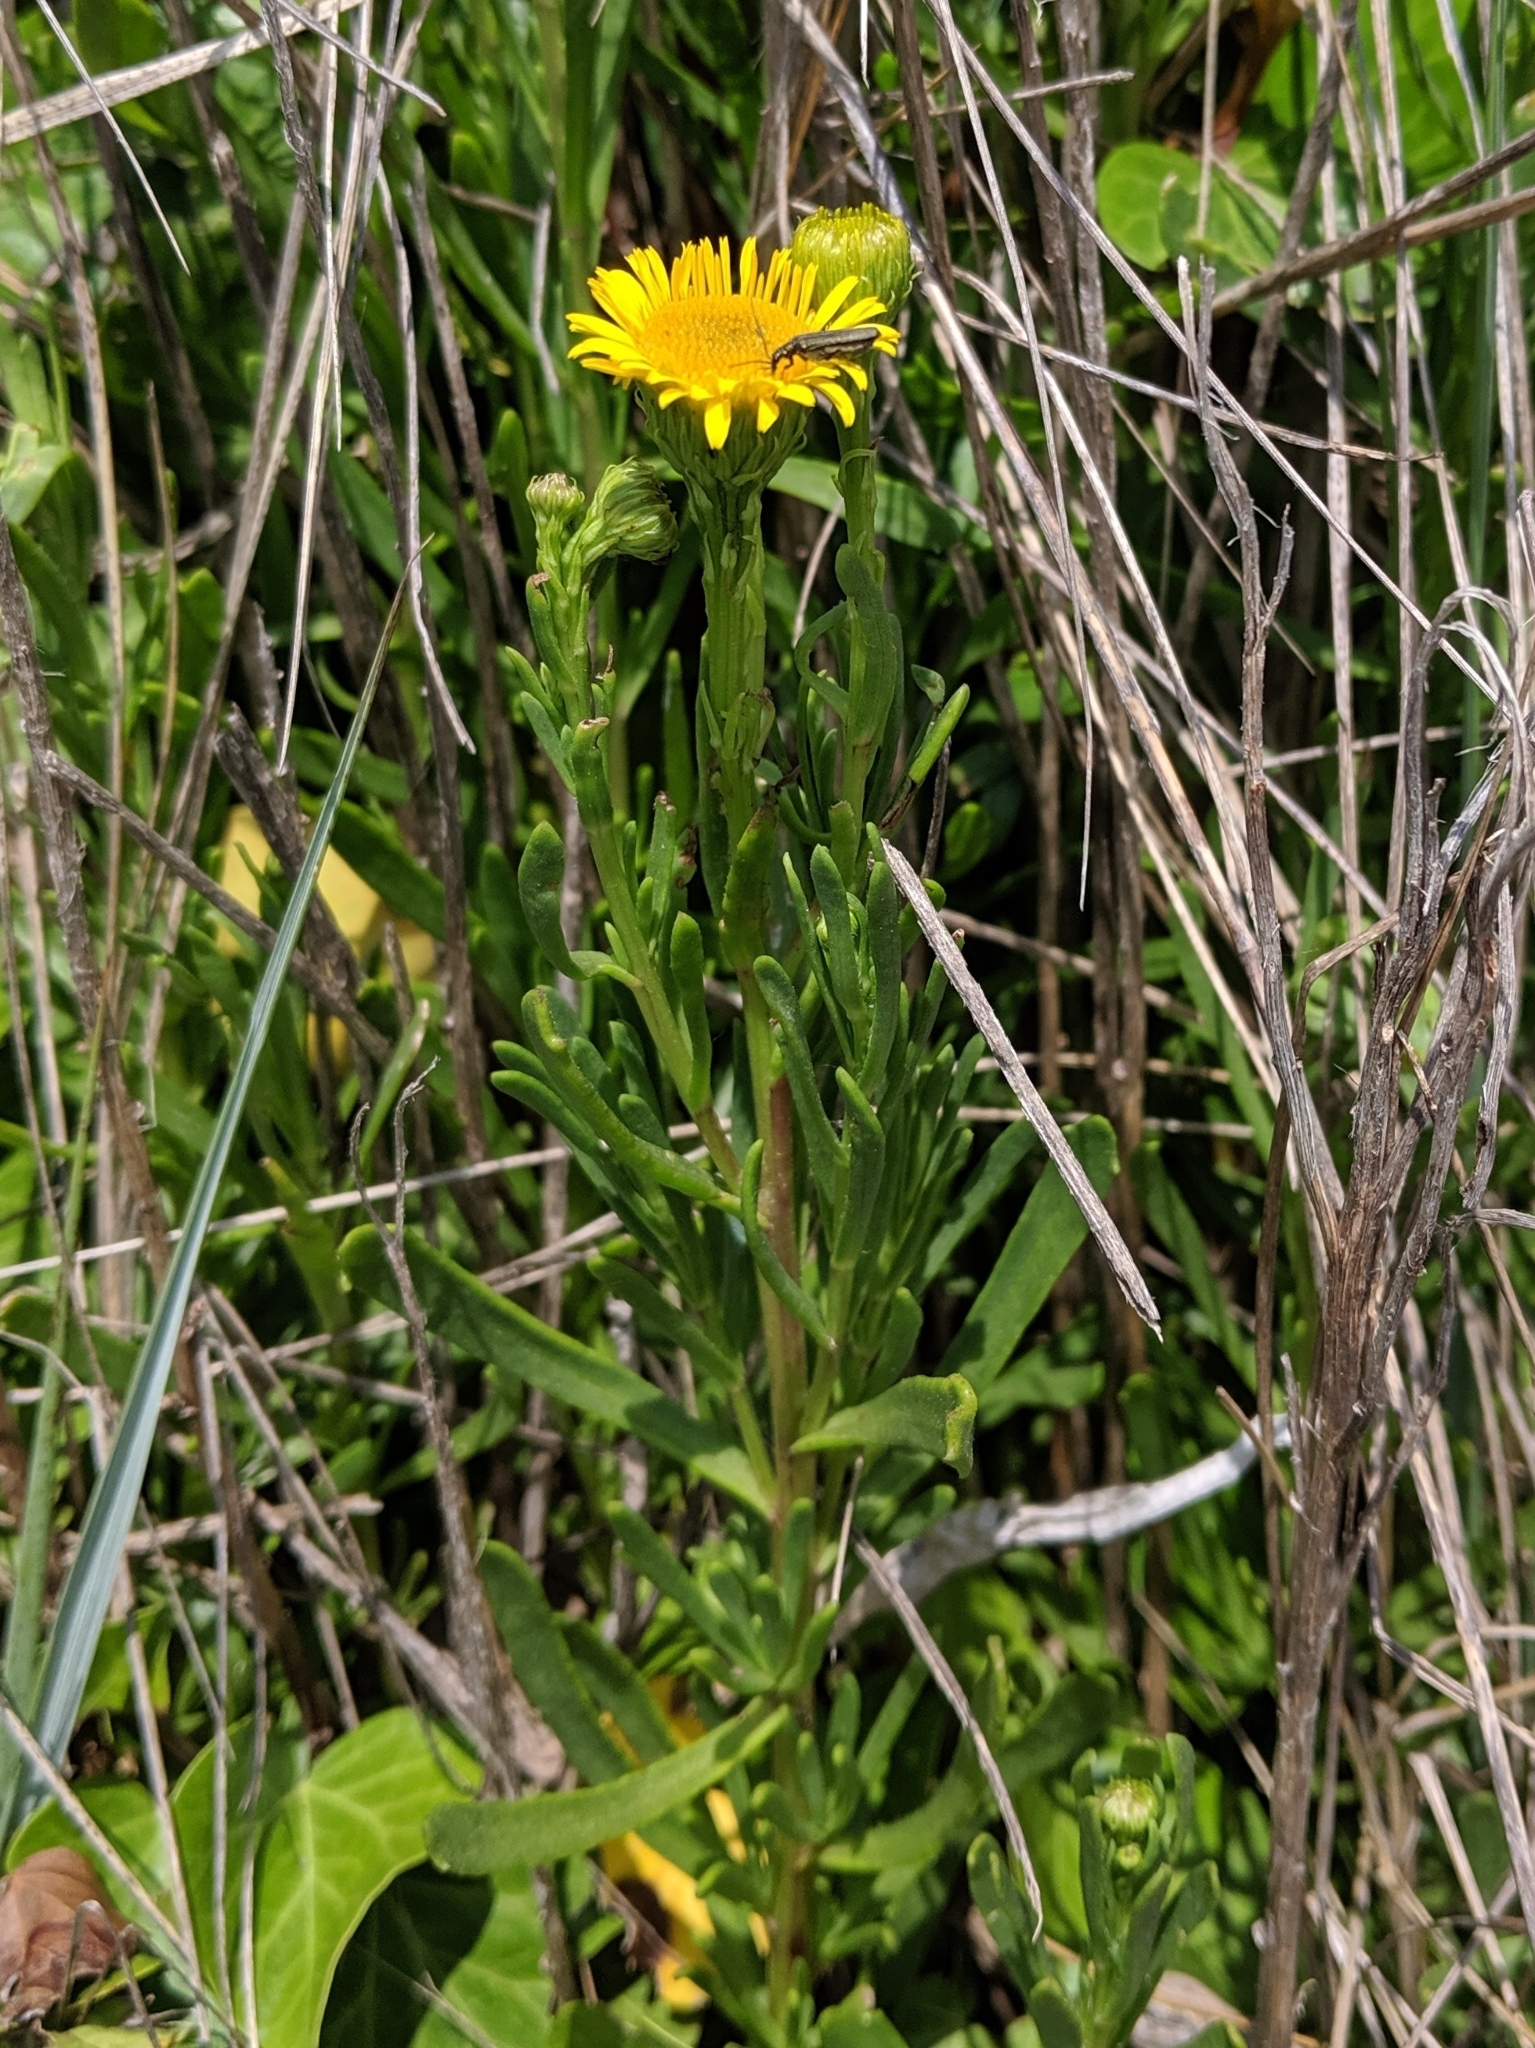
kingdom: Plantae
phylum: Tracheophyta
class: Magnoliopsida
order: Asterales
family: Asteraceae
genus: Limbarda
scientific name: Limbarda crithmoides
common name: Golden samphire
